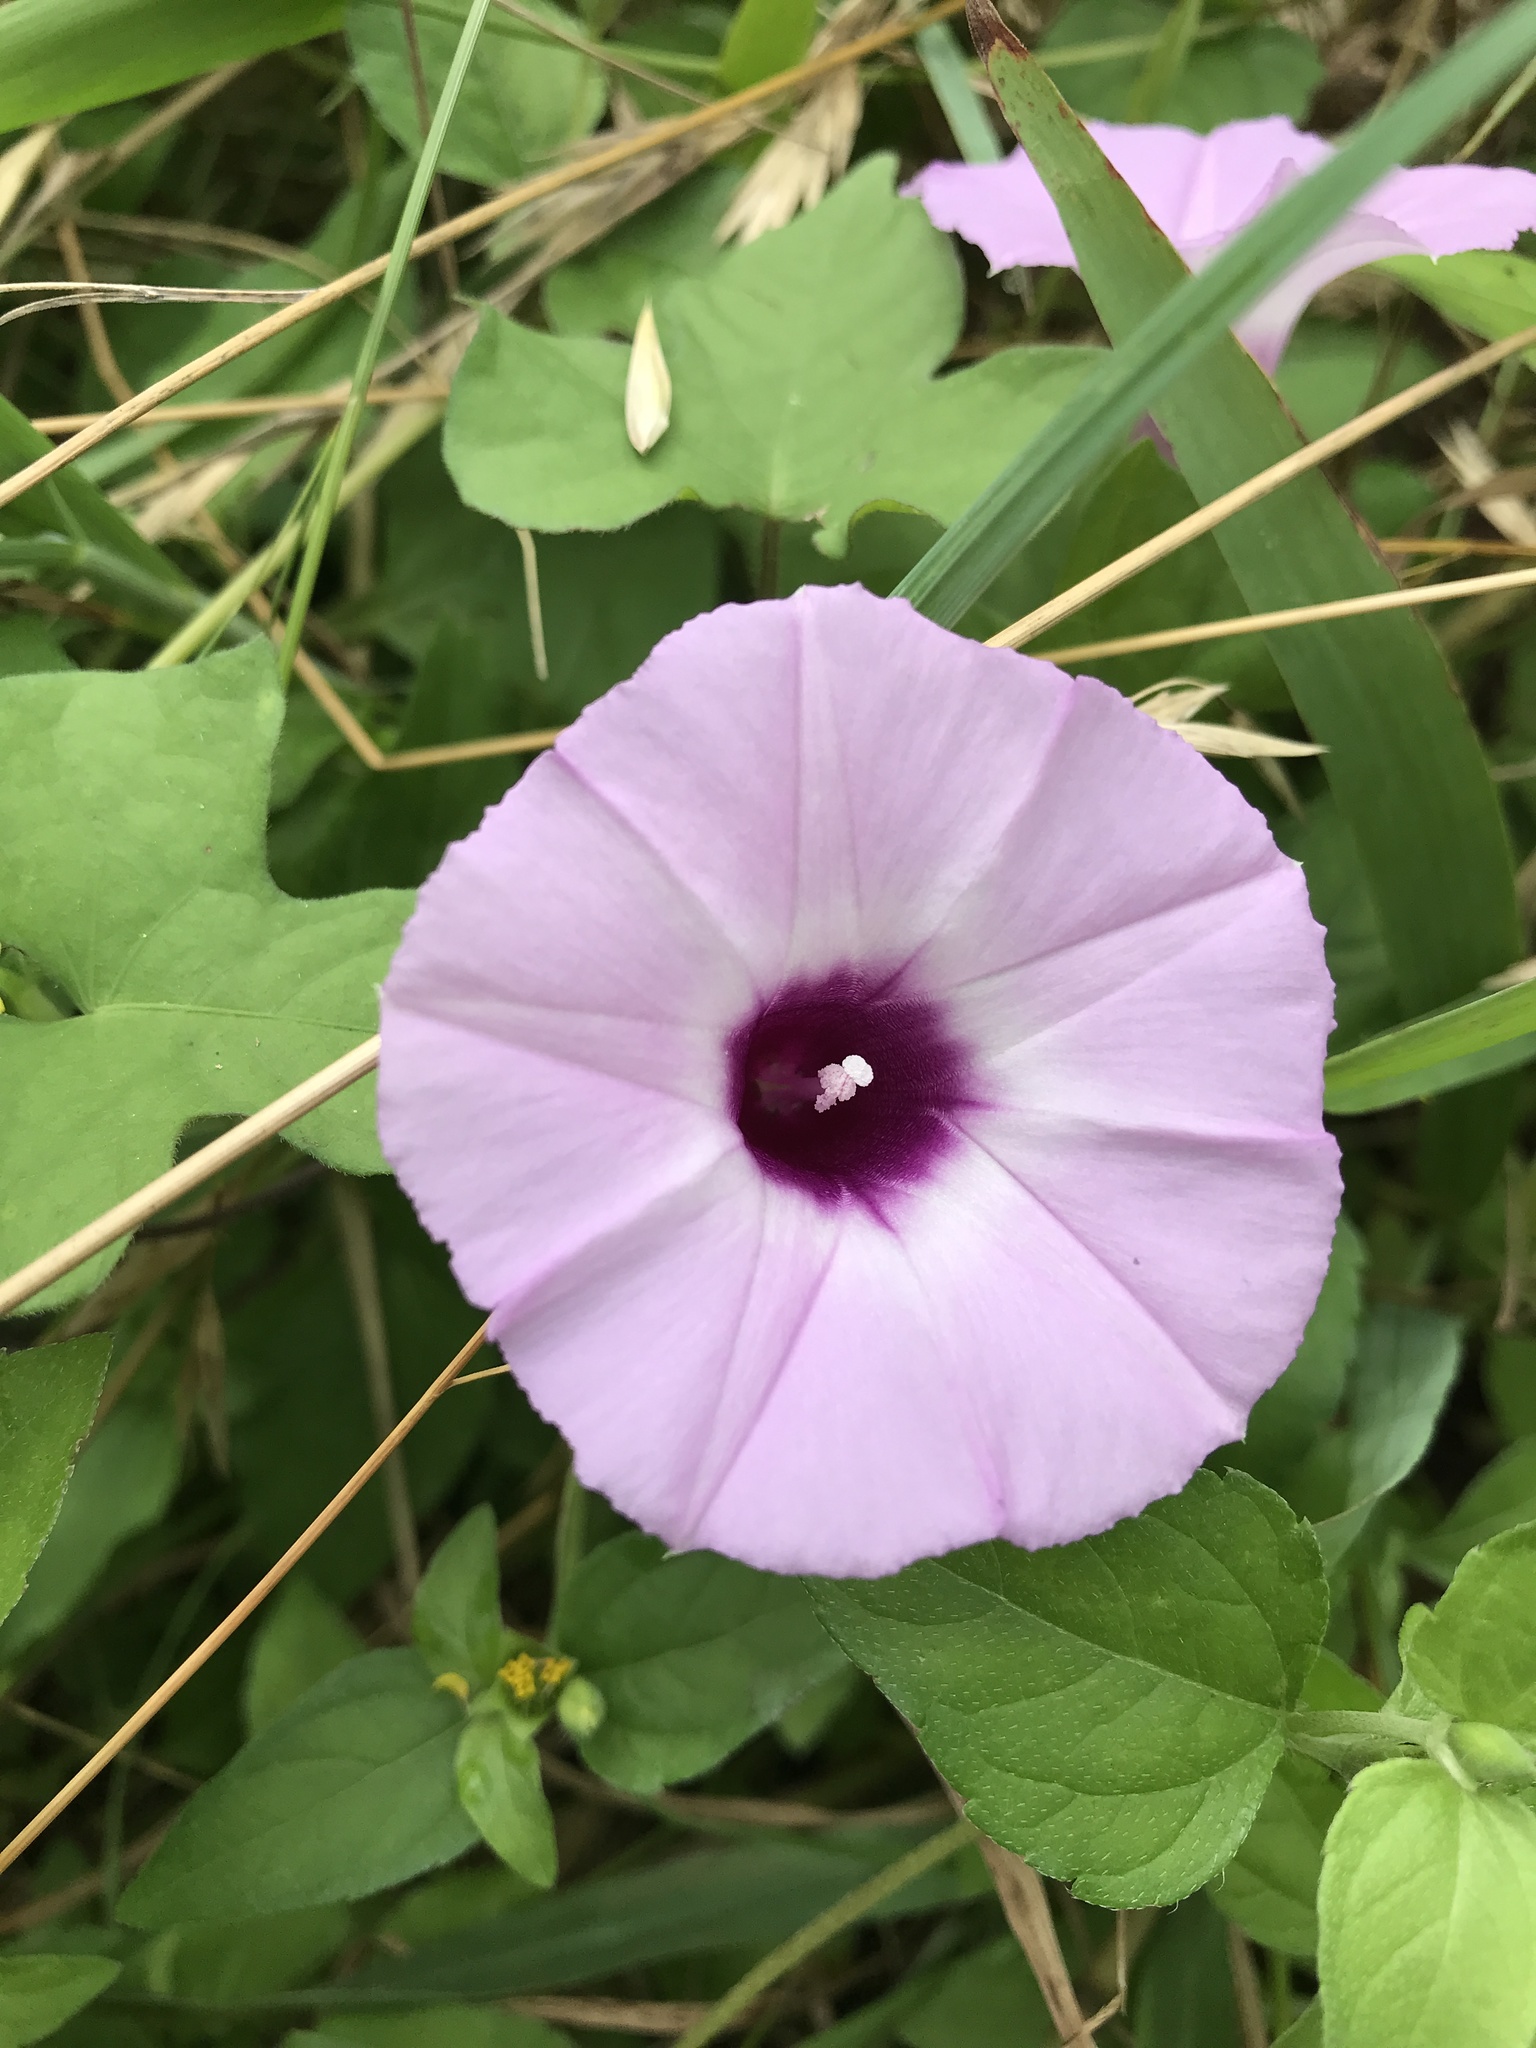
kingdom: Plantae
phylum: Tracheophyta
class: Magnoliopsida
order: Solanales
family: Convolvulaceae
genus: Ipomoea
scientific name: Ipomoea cordatotriloba
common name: Cotton morning glory
